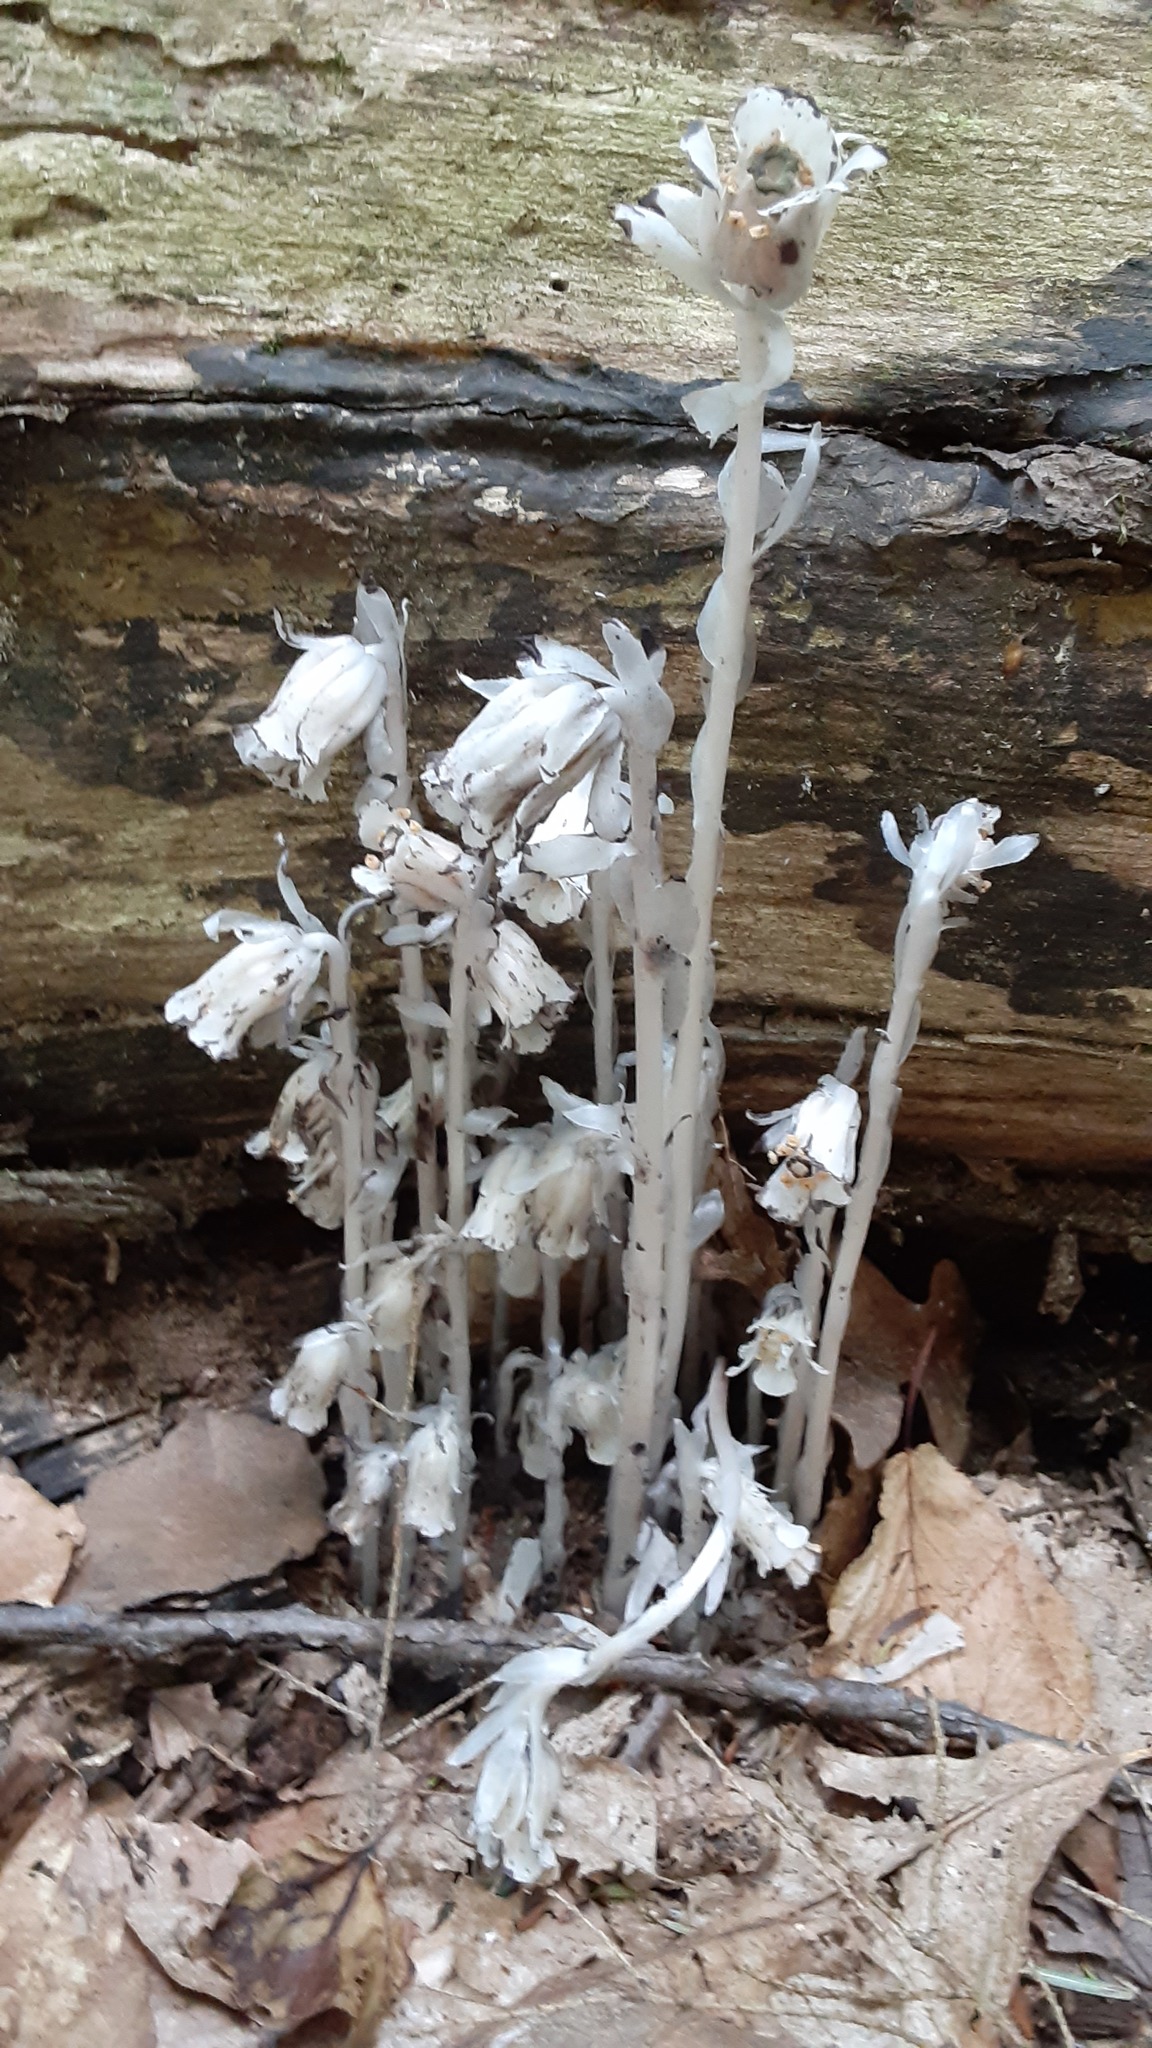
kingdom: Plantae
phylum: Tracheophyta
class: Magnoliopsida
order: Ericales
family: Ericaceae
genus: Monotropa
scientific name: Monotropa uniflora
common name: Convulsion root
